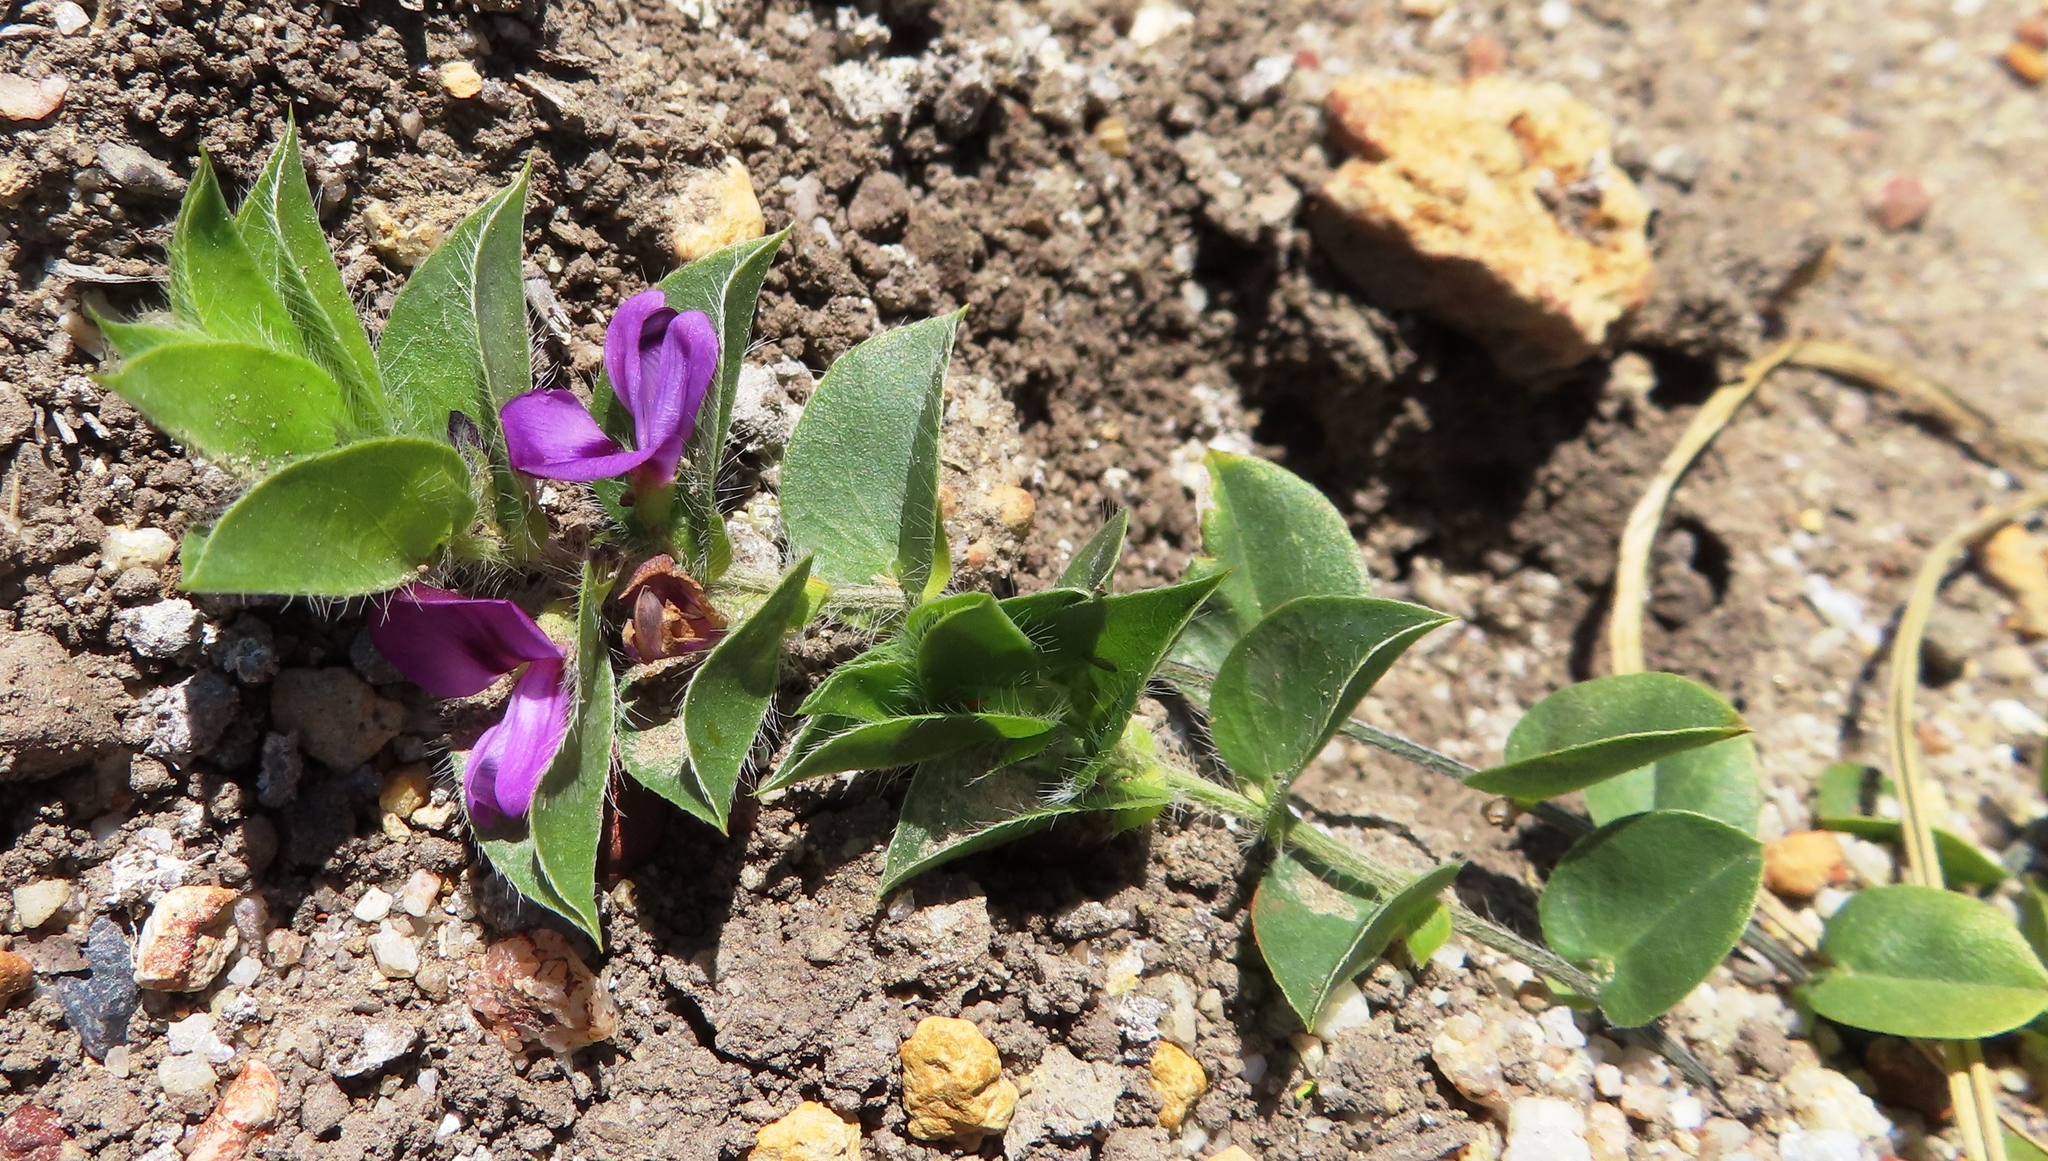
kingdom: Plantae
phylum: Tracheophyta
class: Magnoliopsida
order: Fabales
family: Fabaceae
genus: Psoralea
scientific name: Psoralea imbricata
